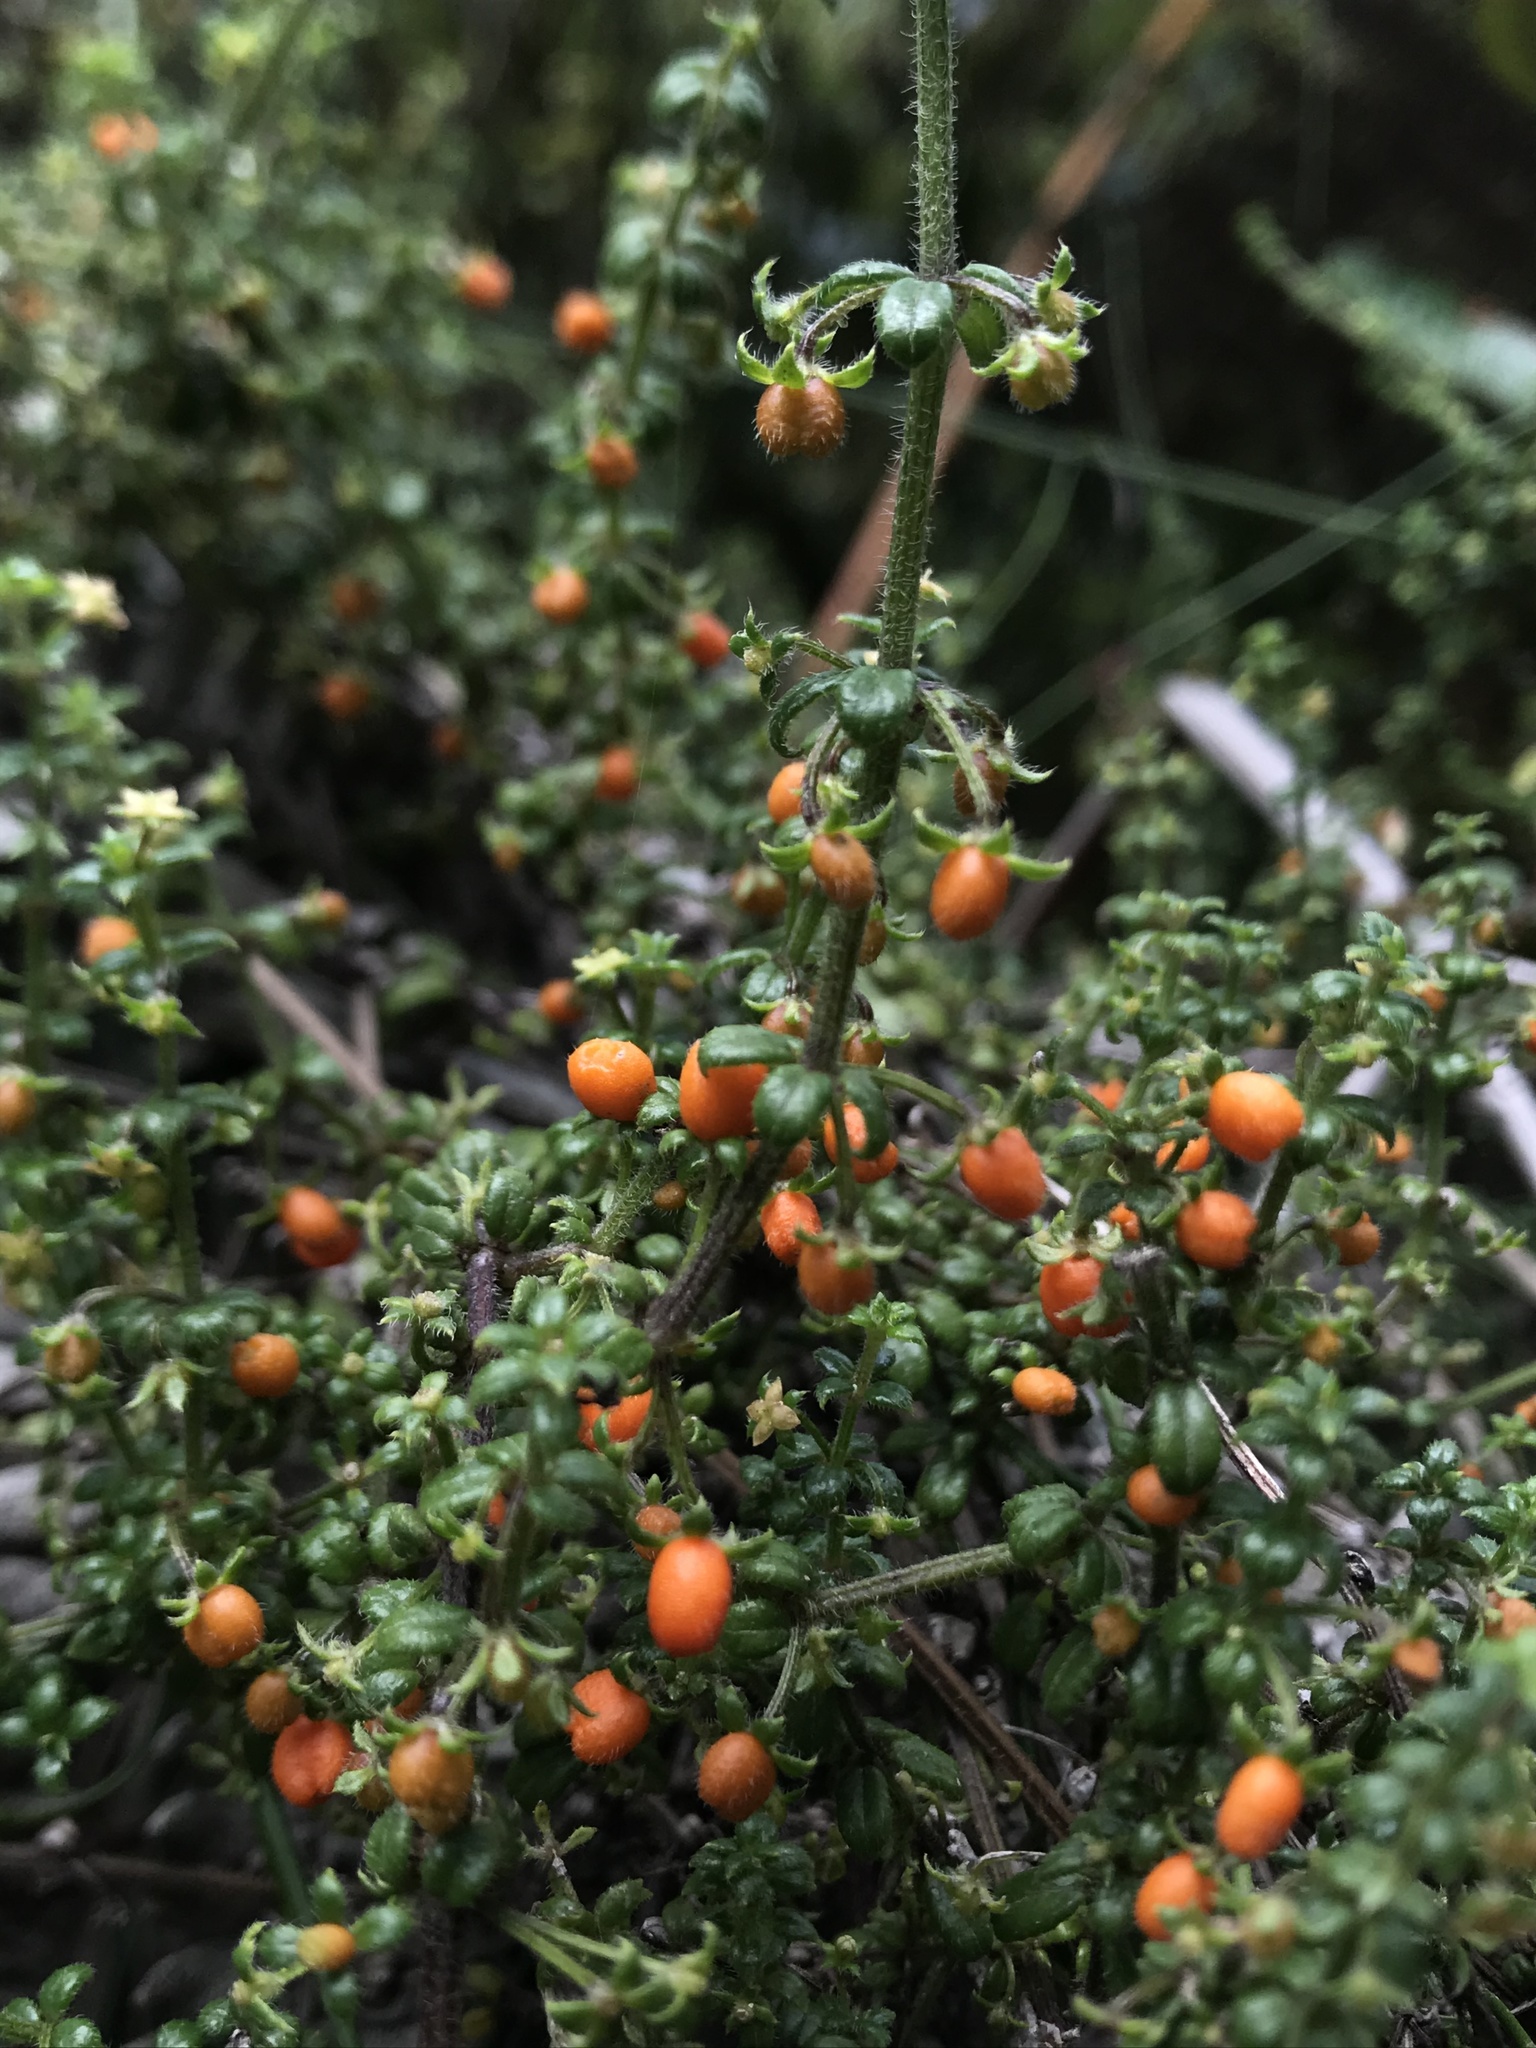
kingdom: Plantae
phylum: Tracheophyta
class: Magnoliopsida
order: Gentianales
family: Rubiaceae
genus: Galium
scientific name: Galium hypocarpium
